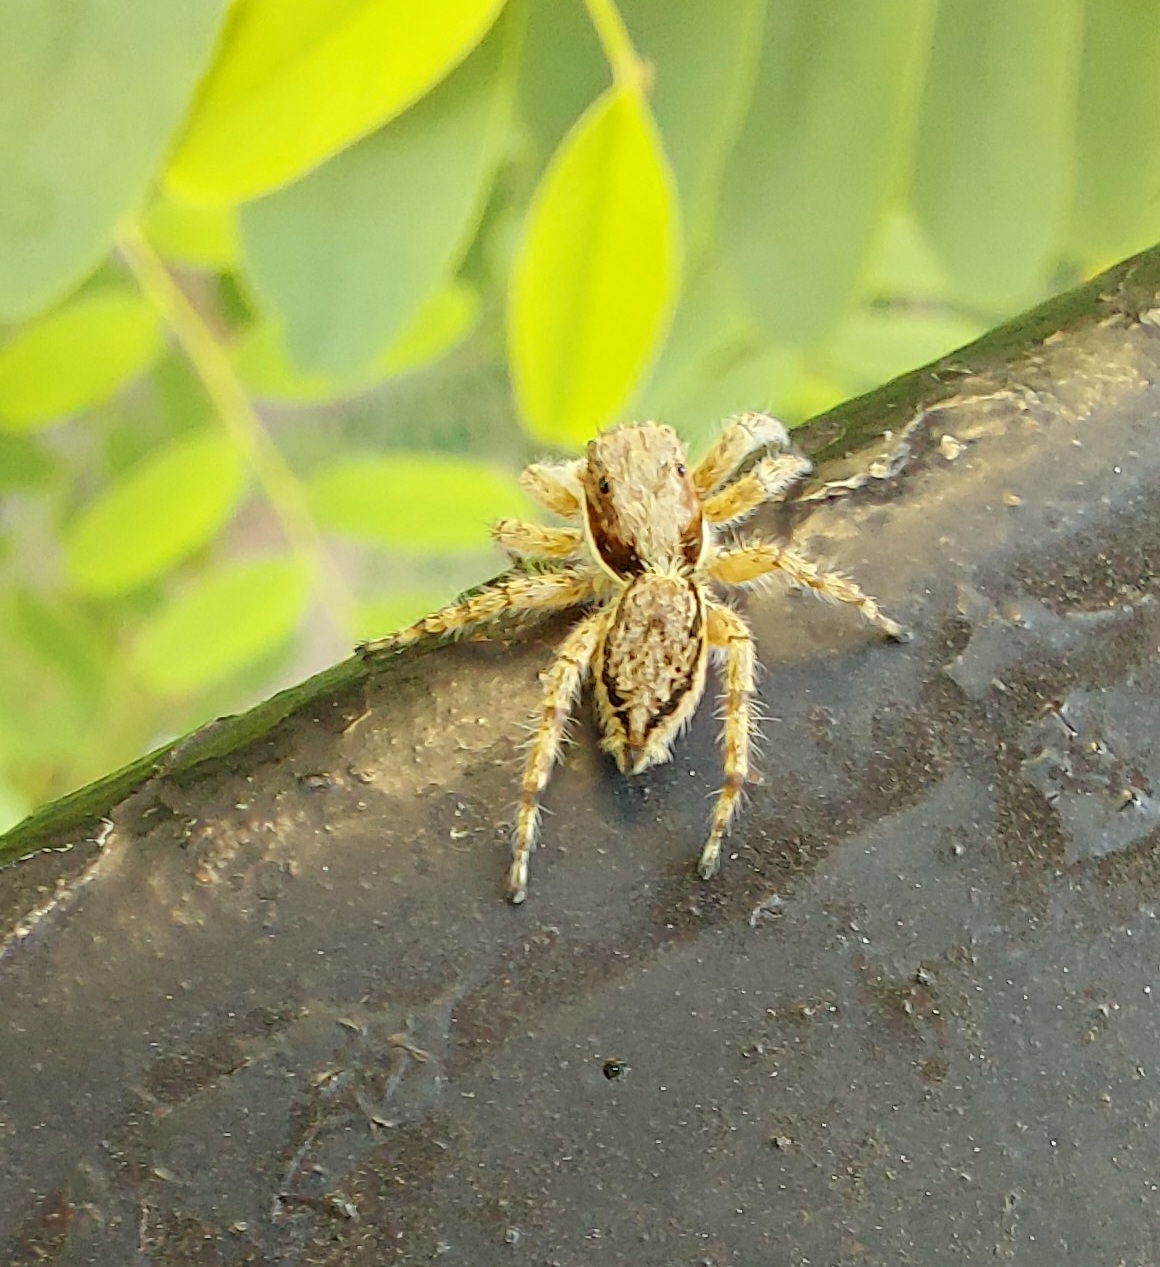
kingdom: Animalia
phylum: Arthropoda
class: Arachnida
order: Araneae
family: Salticidae
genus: Menemerus
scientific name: Menemerus bivittatus
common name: Gray wall jumper
